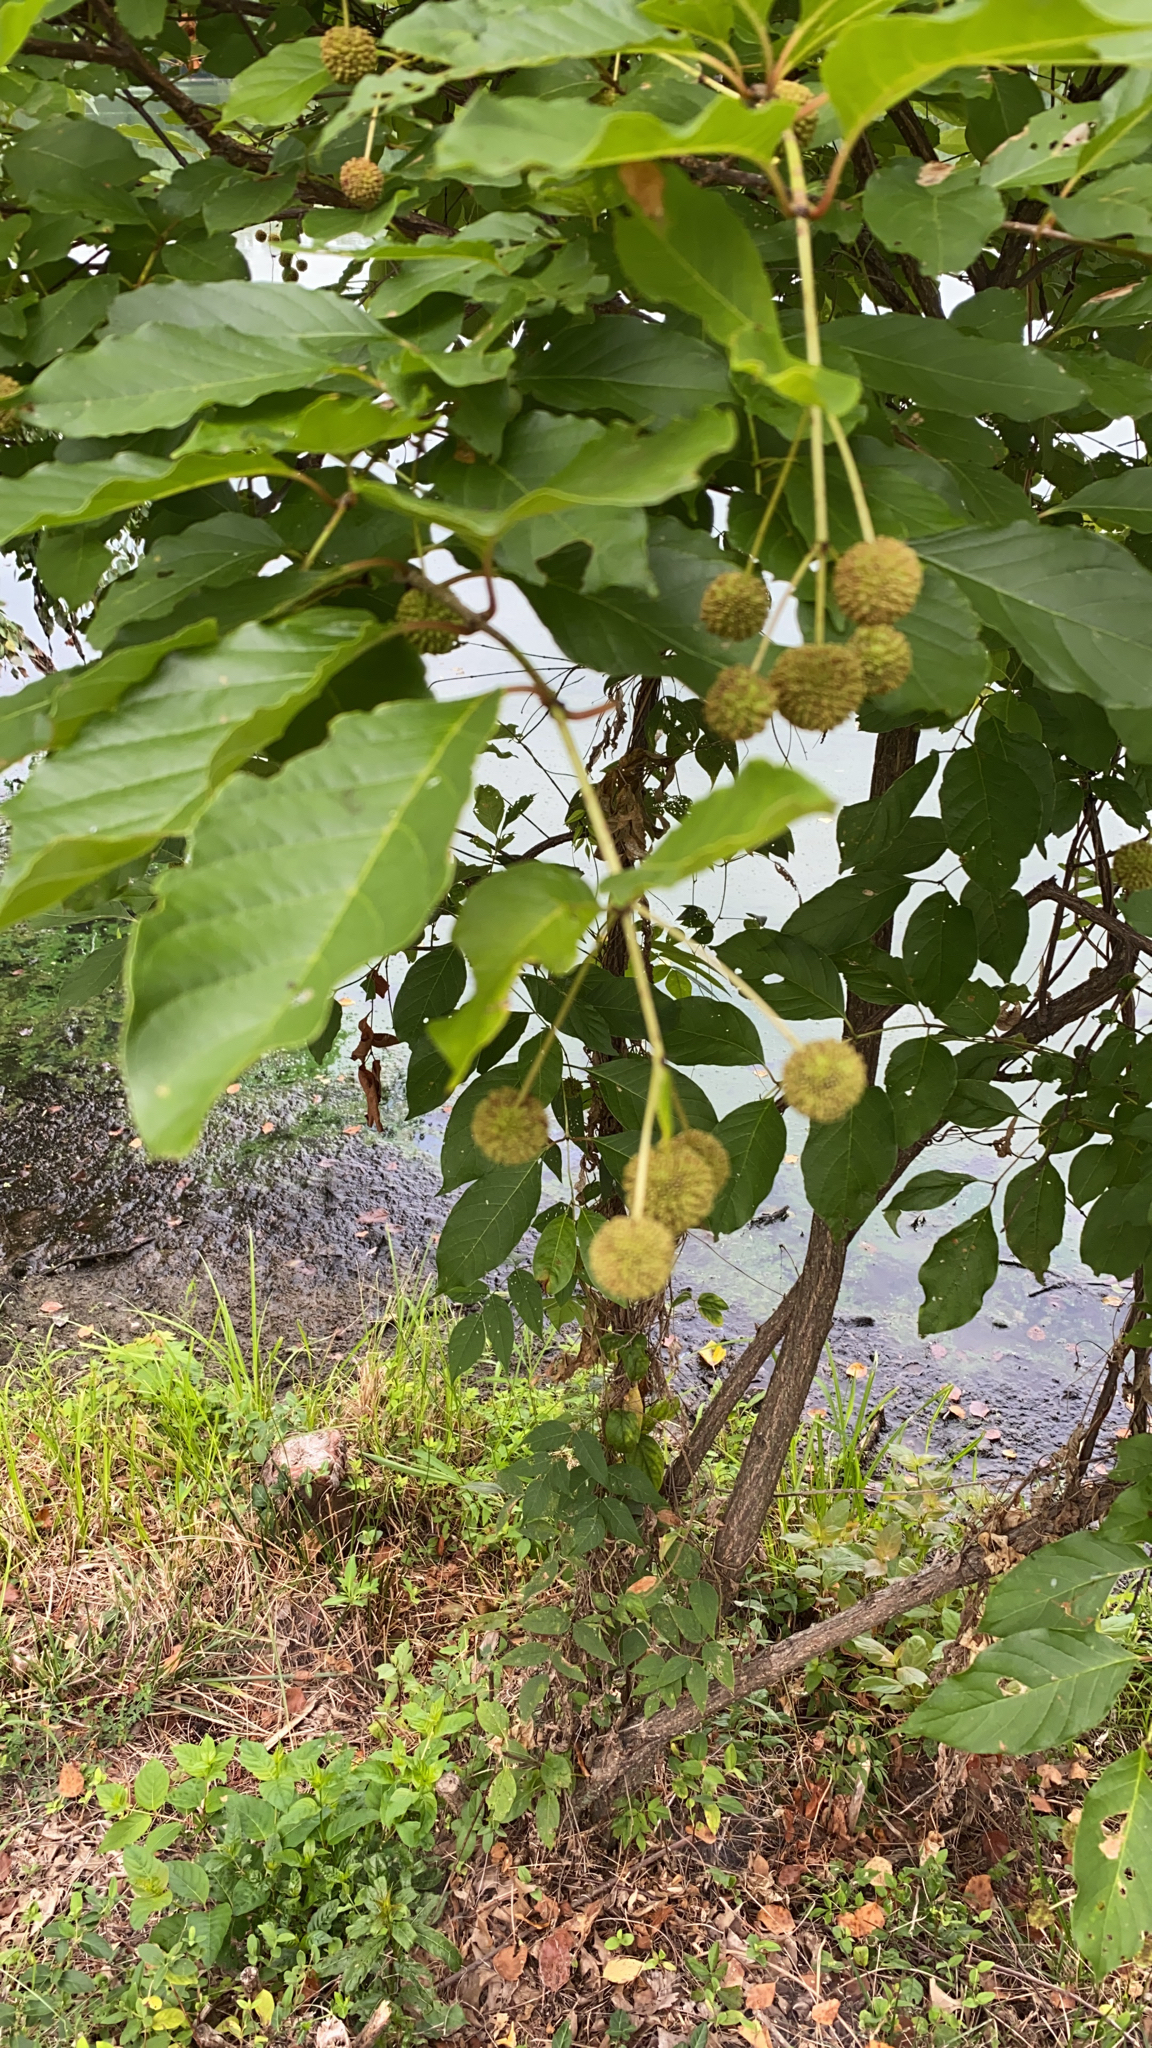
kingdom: Plantae
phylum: Tracheophyta
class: Magnoliopsida
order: Gentianales
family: Rubiaceae
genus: Cephalanthus
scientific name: Cephalanthus occidentalis
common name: Button-willow
